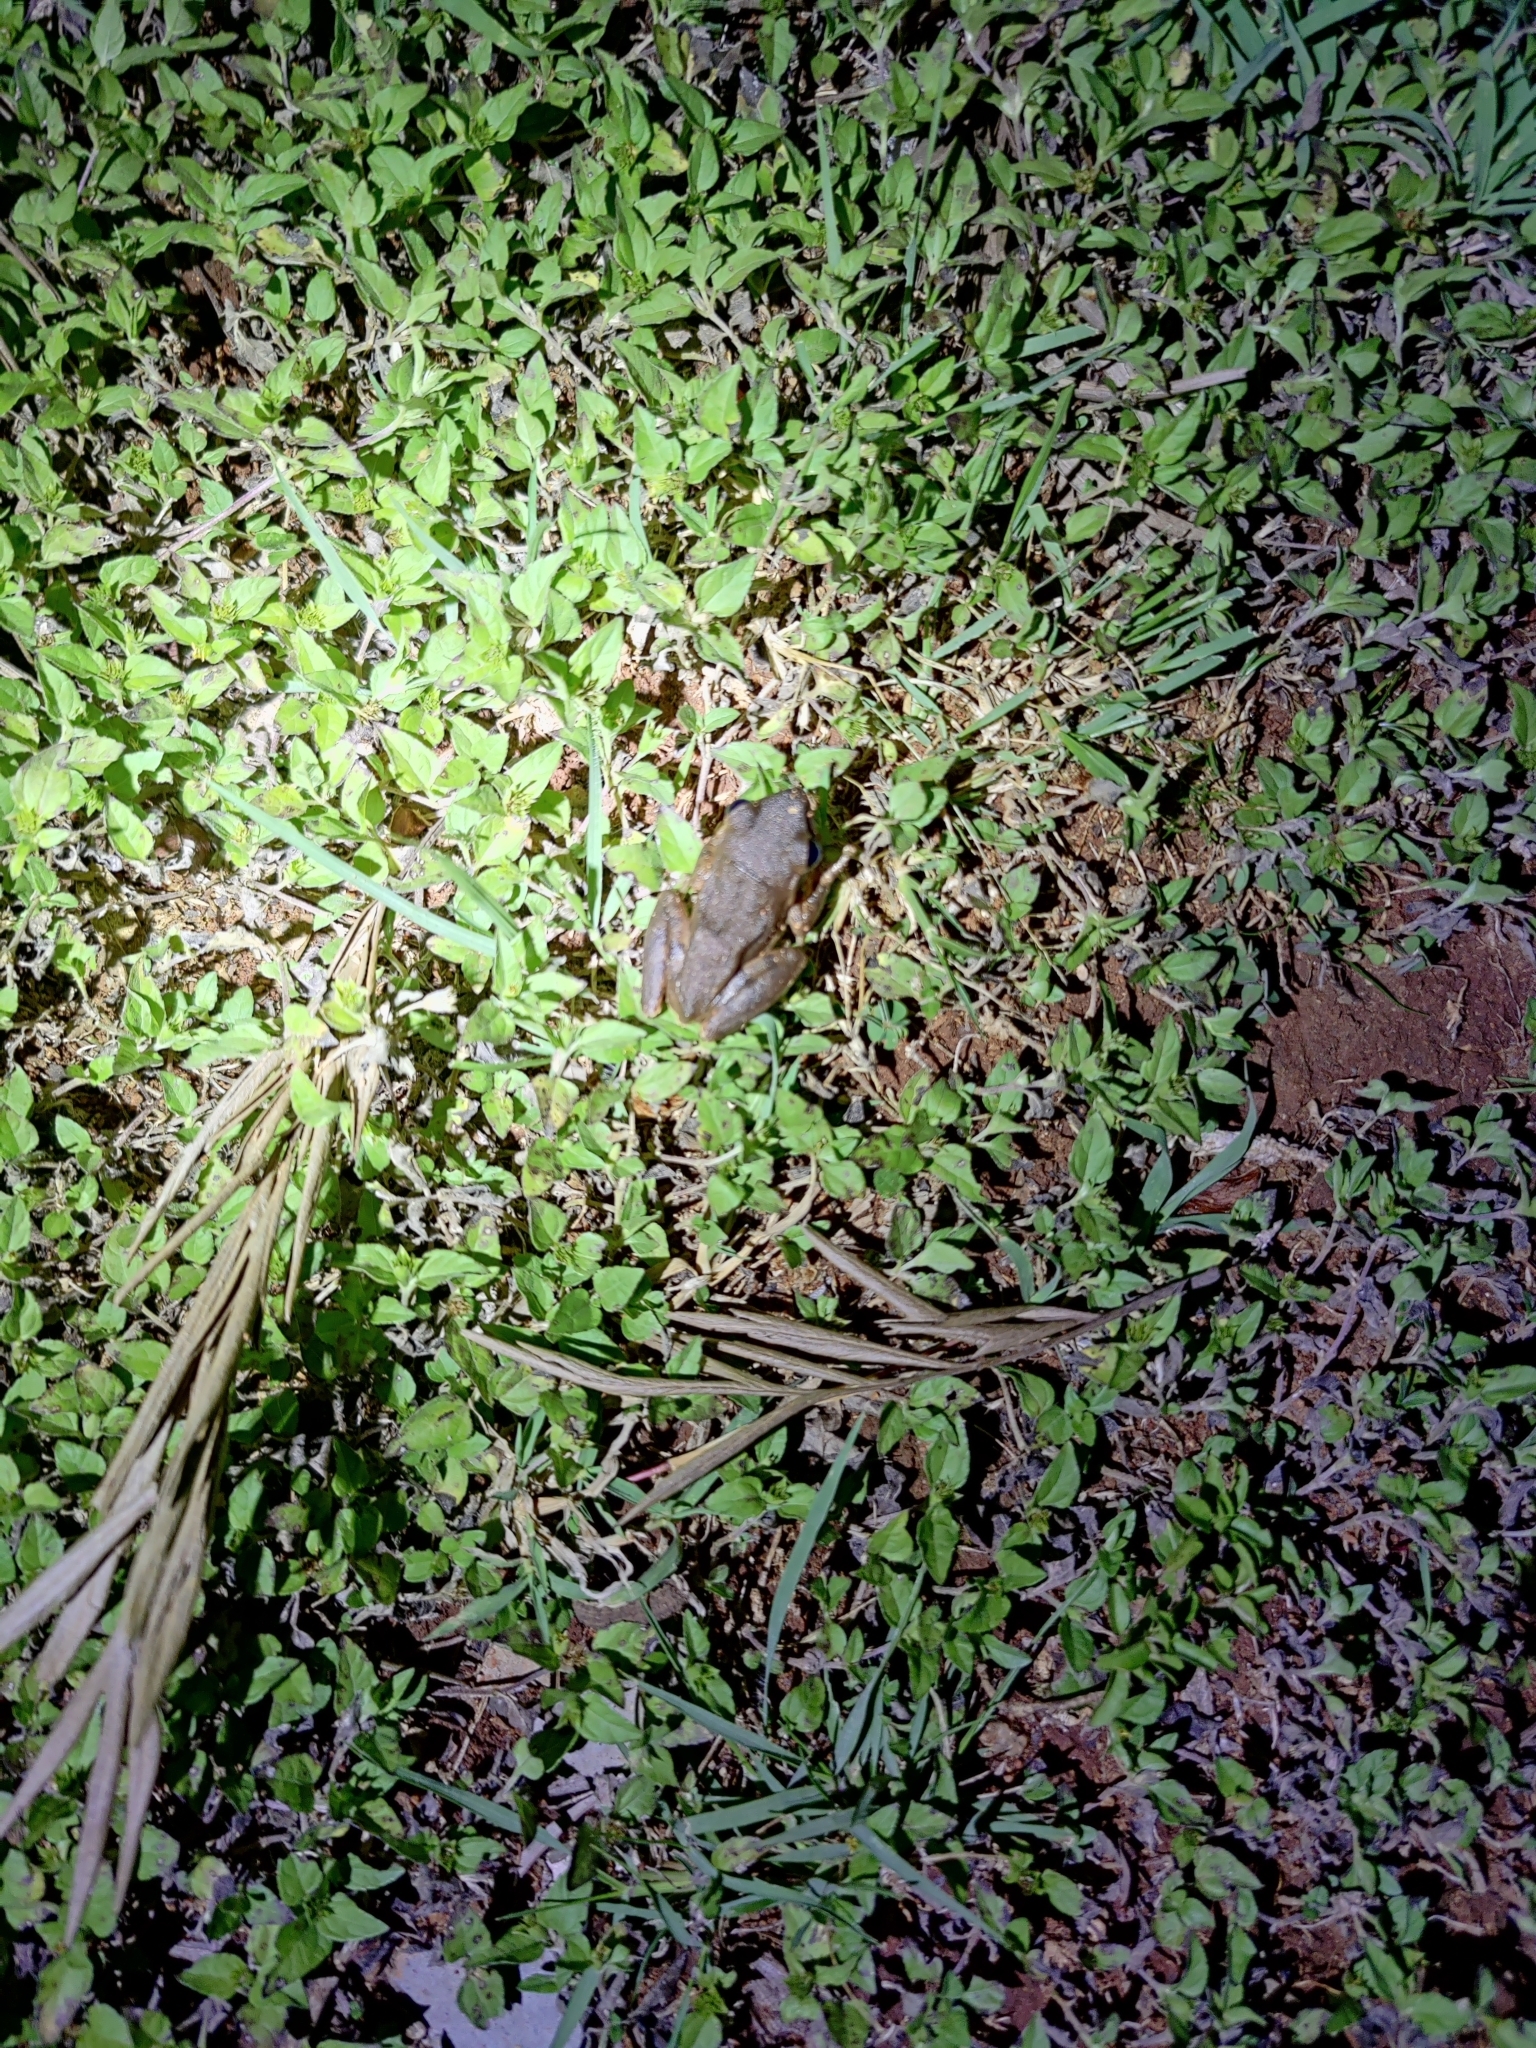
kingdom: Animalia
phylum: Chordata
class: Amphibia
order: Anura
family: Rhacophoridae
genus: Polypedates
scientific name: Polypedates maculatus
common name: Himalayan tree frog
